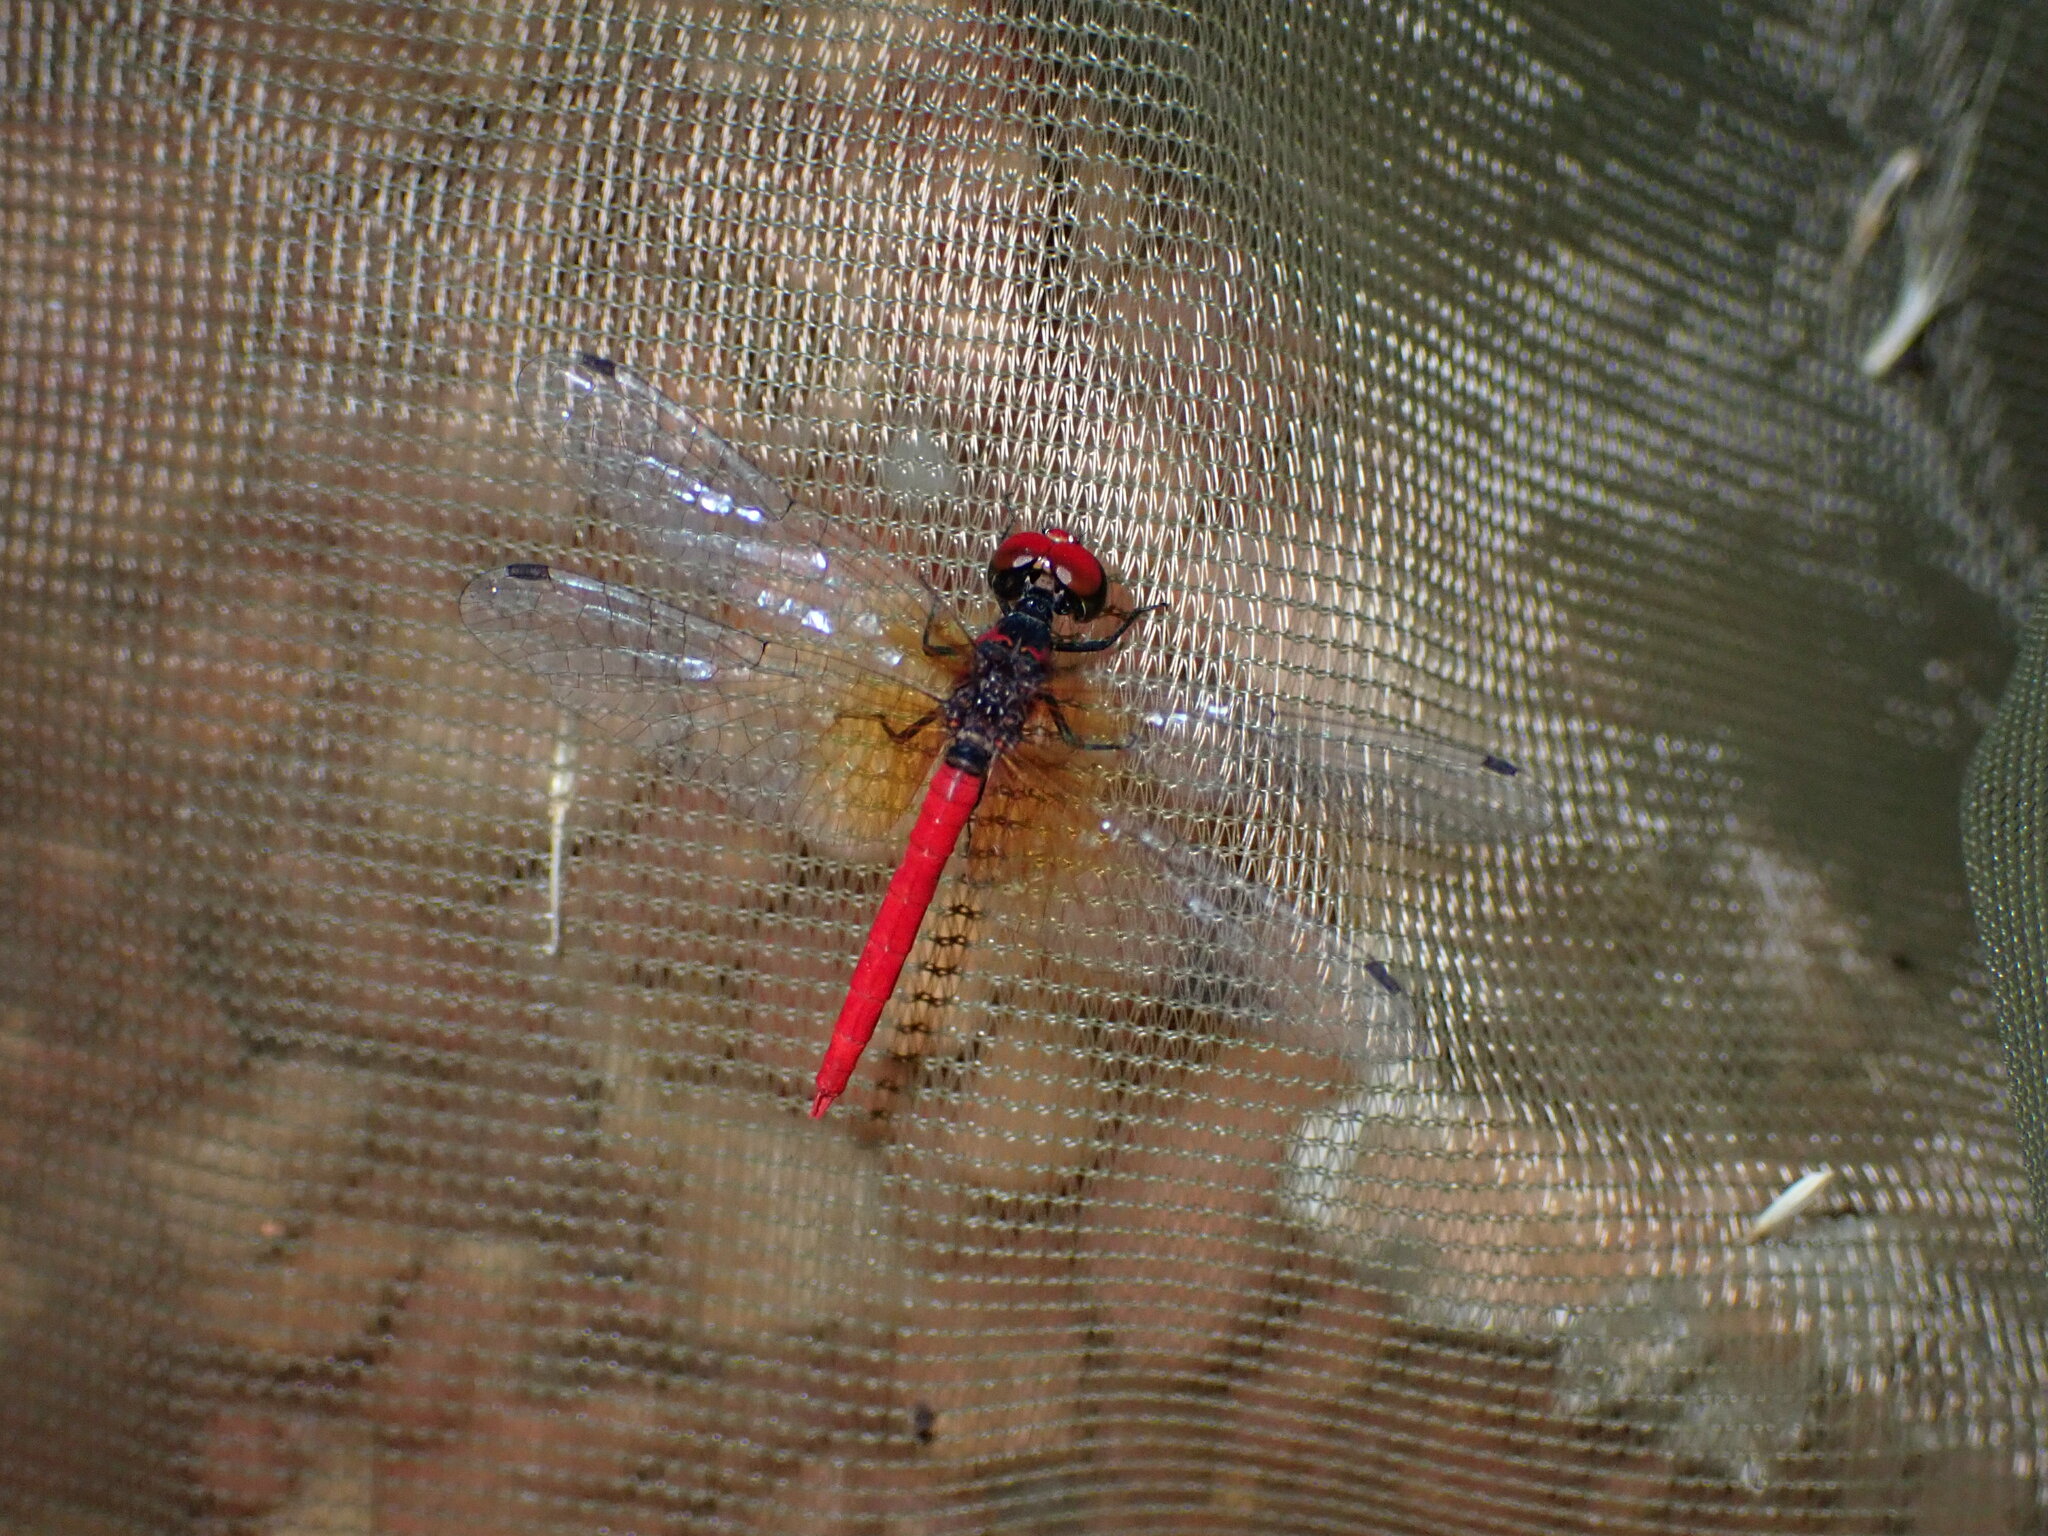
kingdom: Animalia
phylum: Arthropoda
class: Insecta
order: Odonata
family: Libellulidae
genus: Nannophya
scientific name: Nannophya pygmaea
